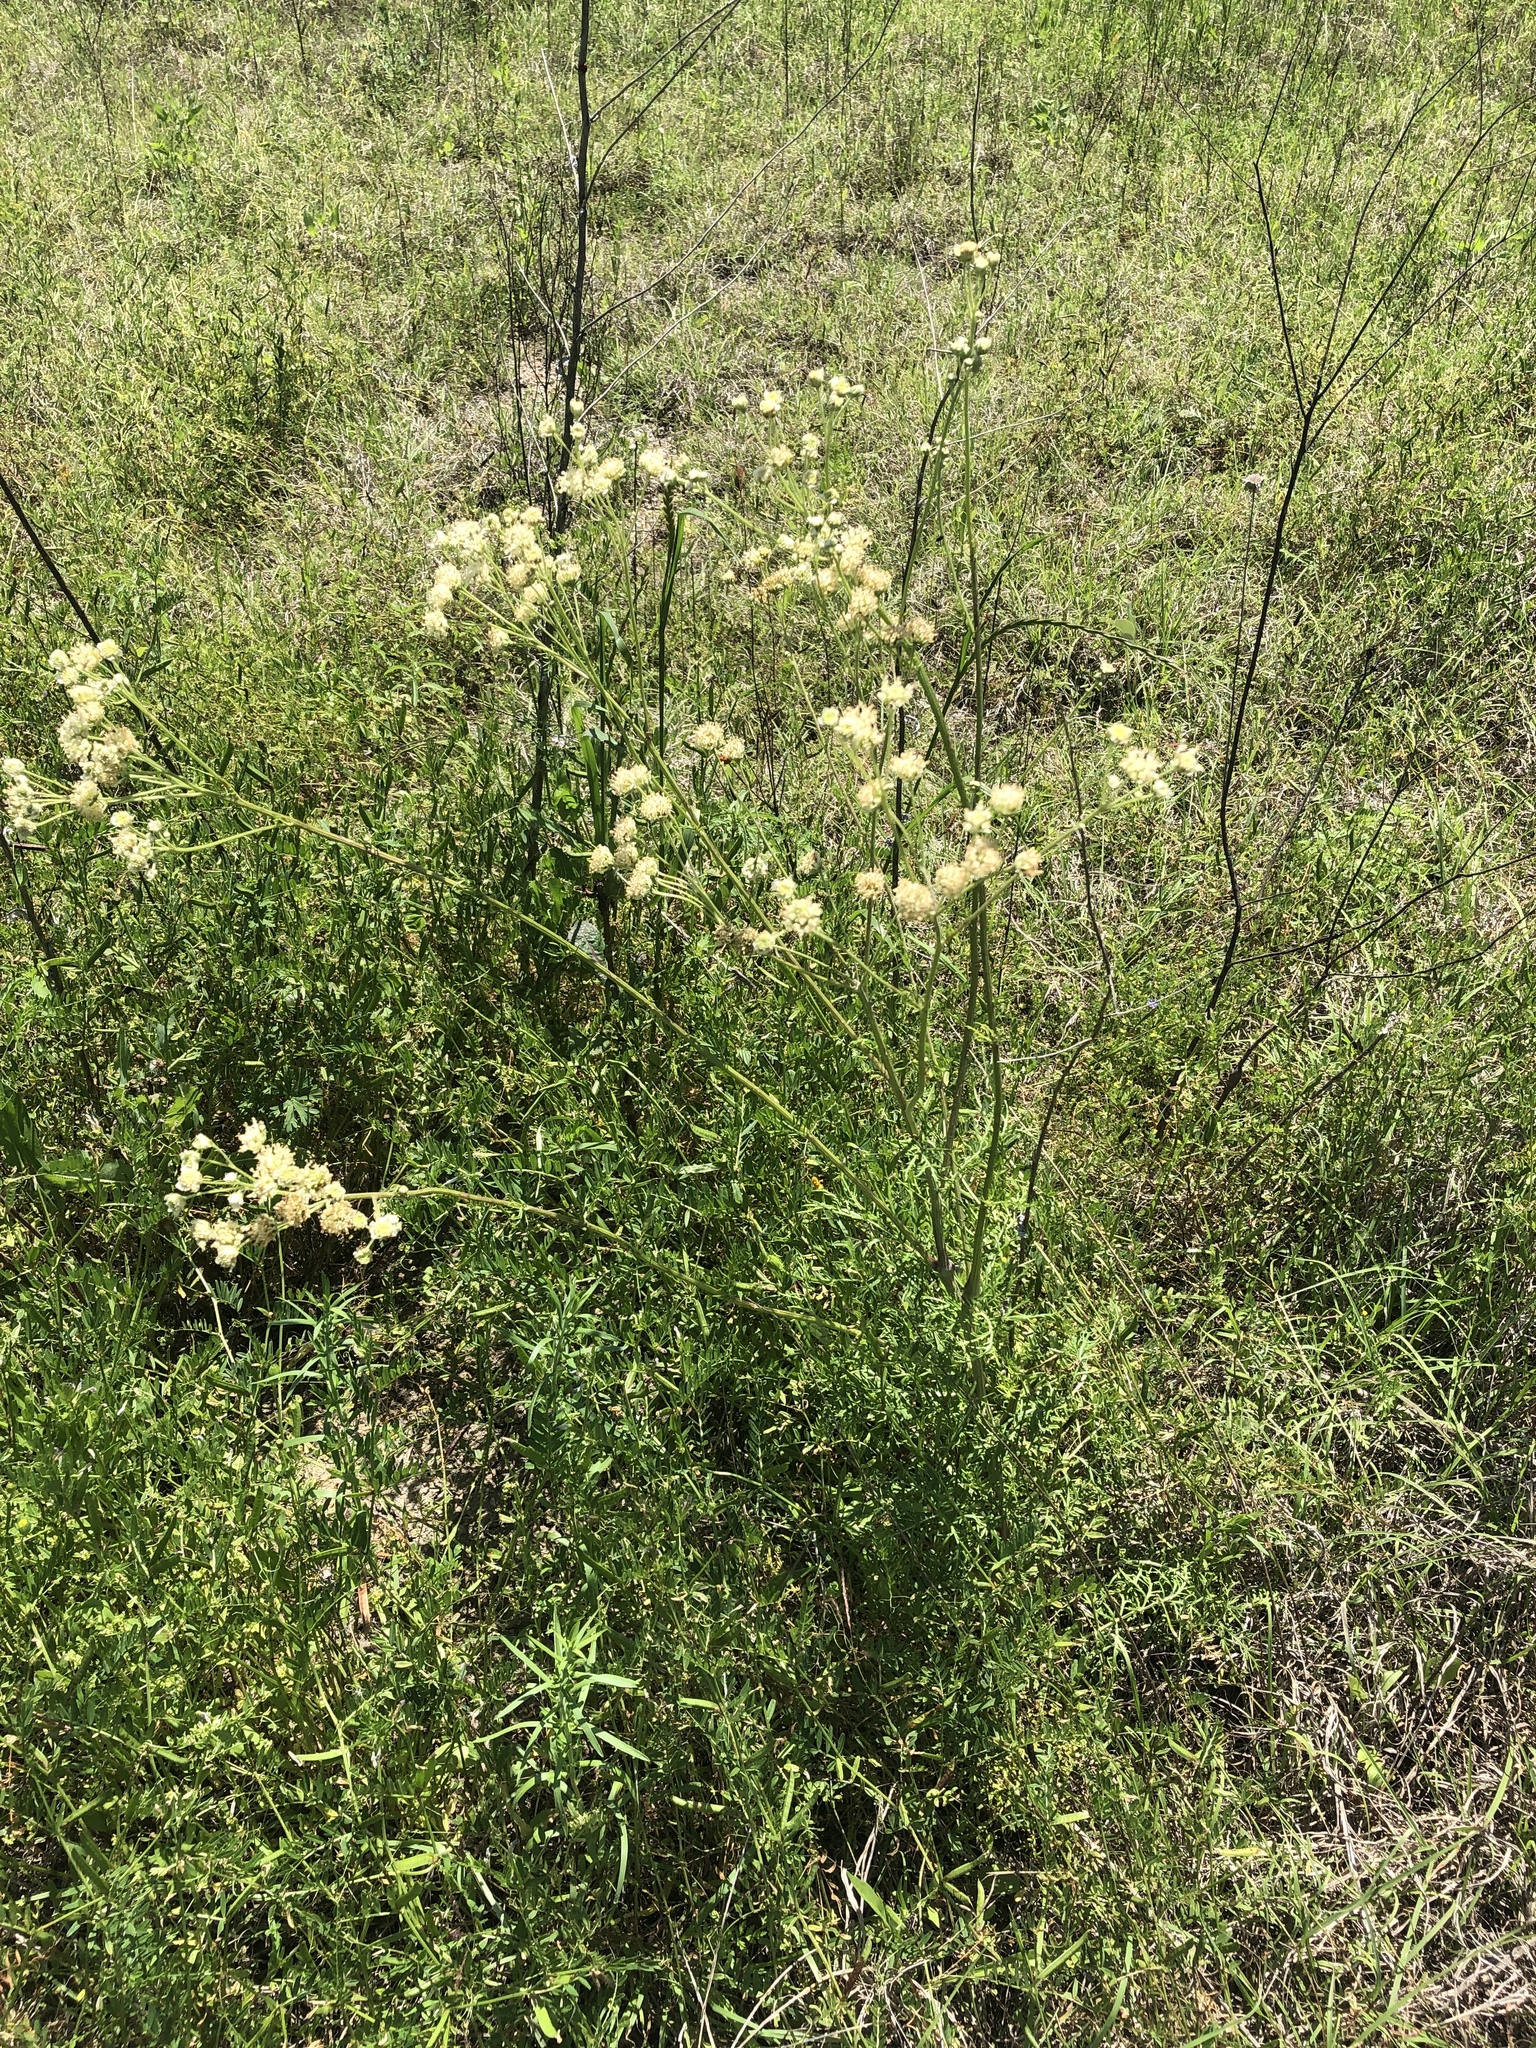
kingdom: Plantae
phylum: Tracheophyta
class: Magnoliopsida
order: Asterales
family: Asteraceae
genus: Hymenopappus
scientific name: Hymenopappus scabiosaeus
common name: Carolina woollywhite
